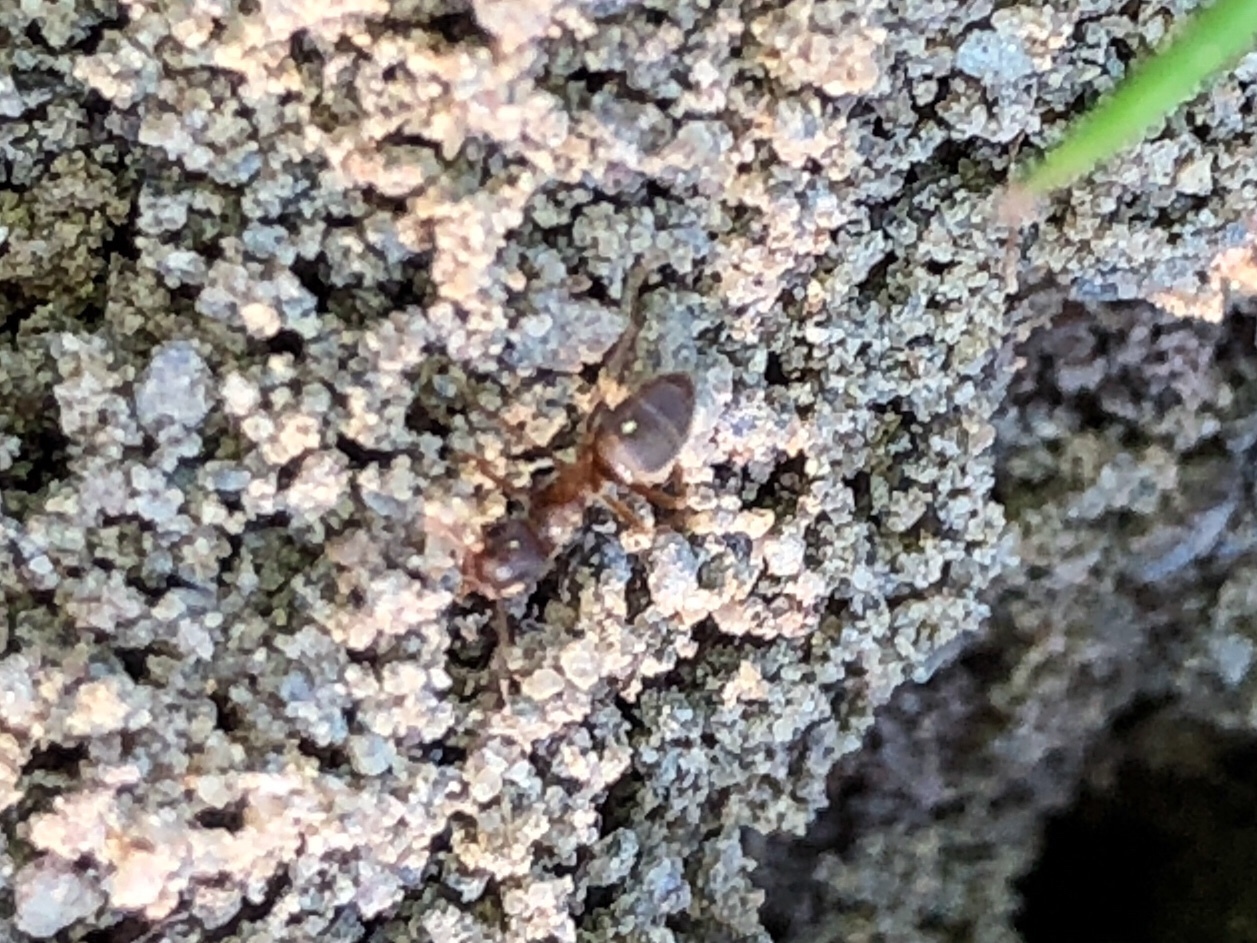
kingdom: Animalia
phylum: Arthropoda
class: Insecta
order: Hymenoptera
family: Formicidae
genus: Lasius
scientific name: Lasius neoniger
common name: Turfgrass ant
